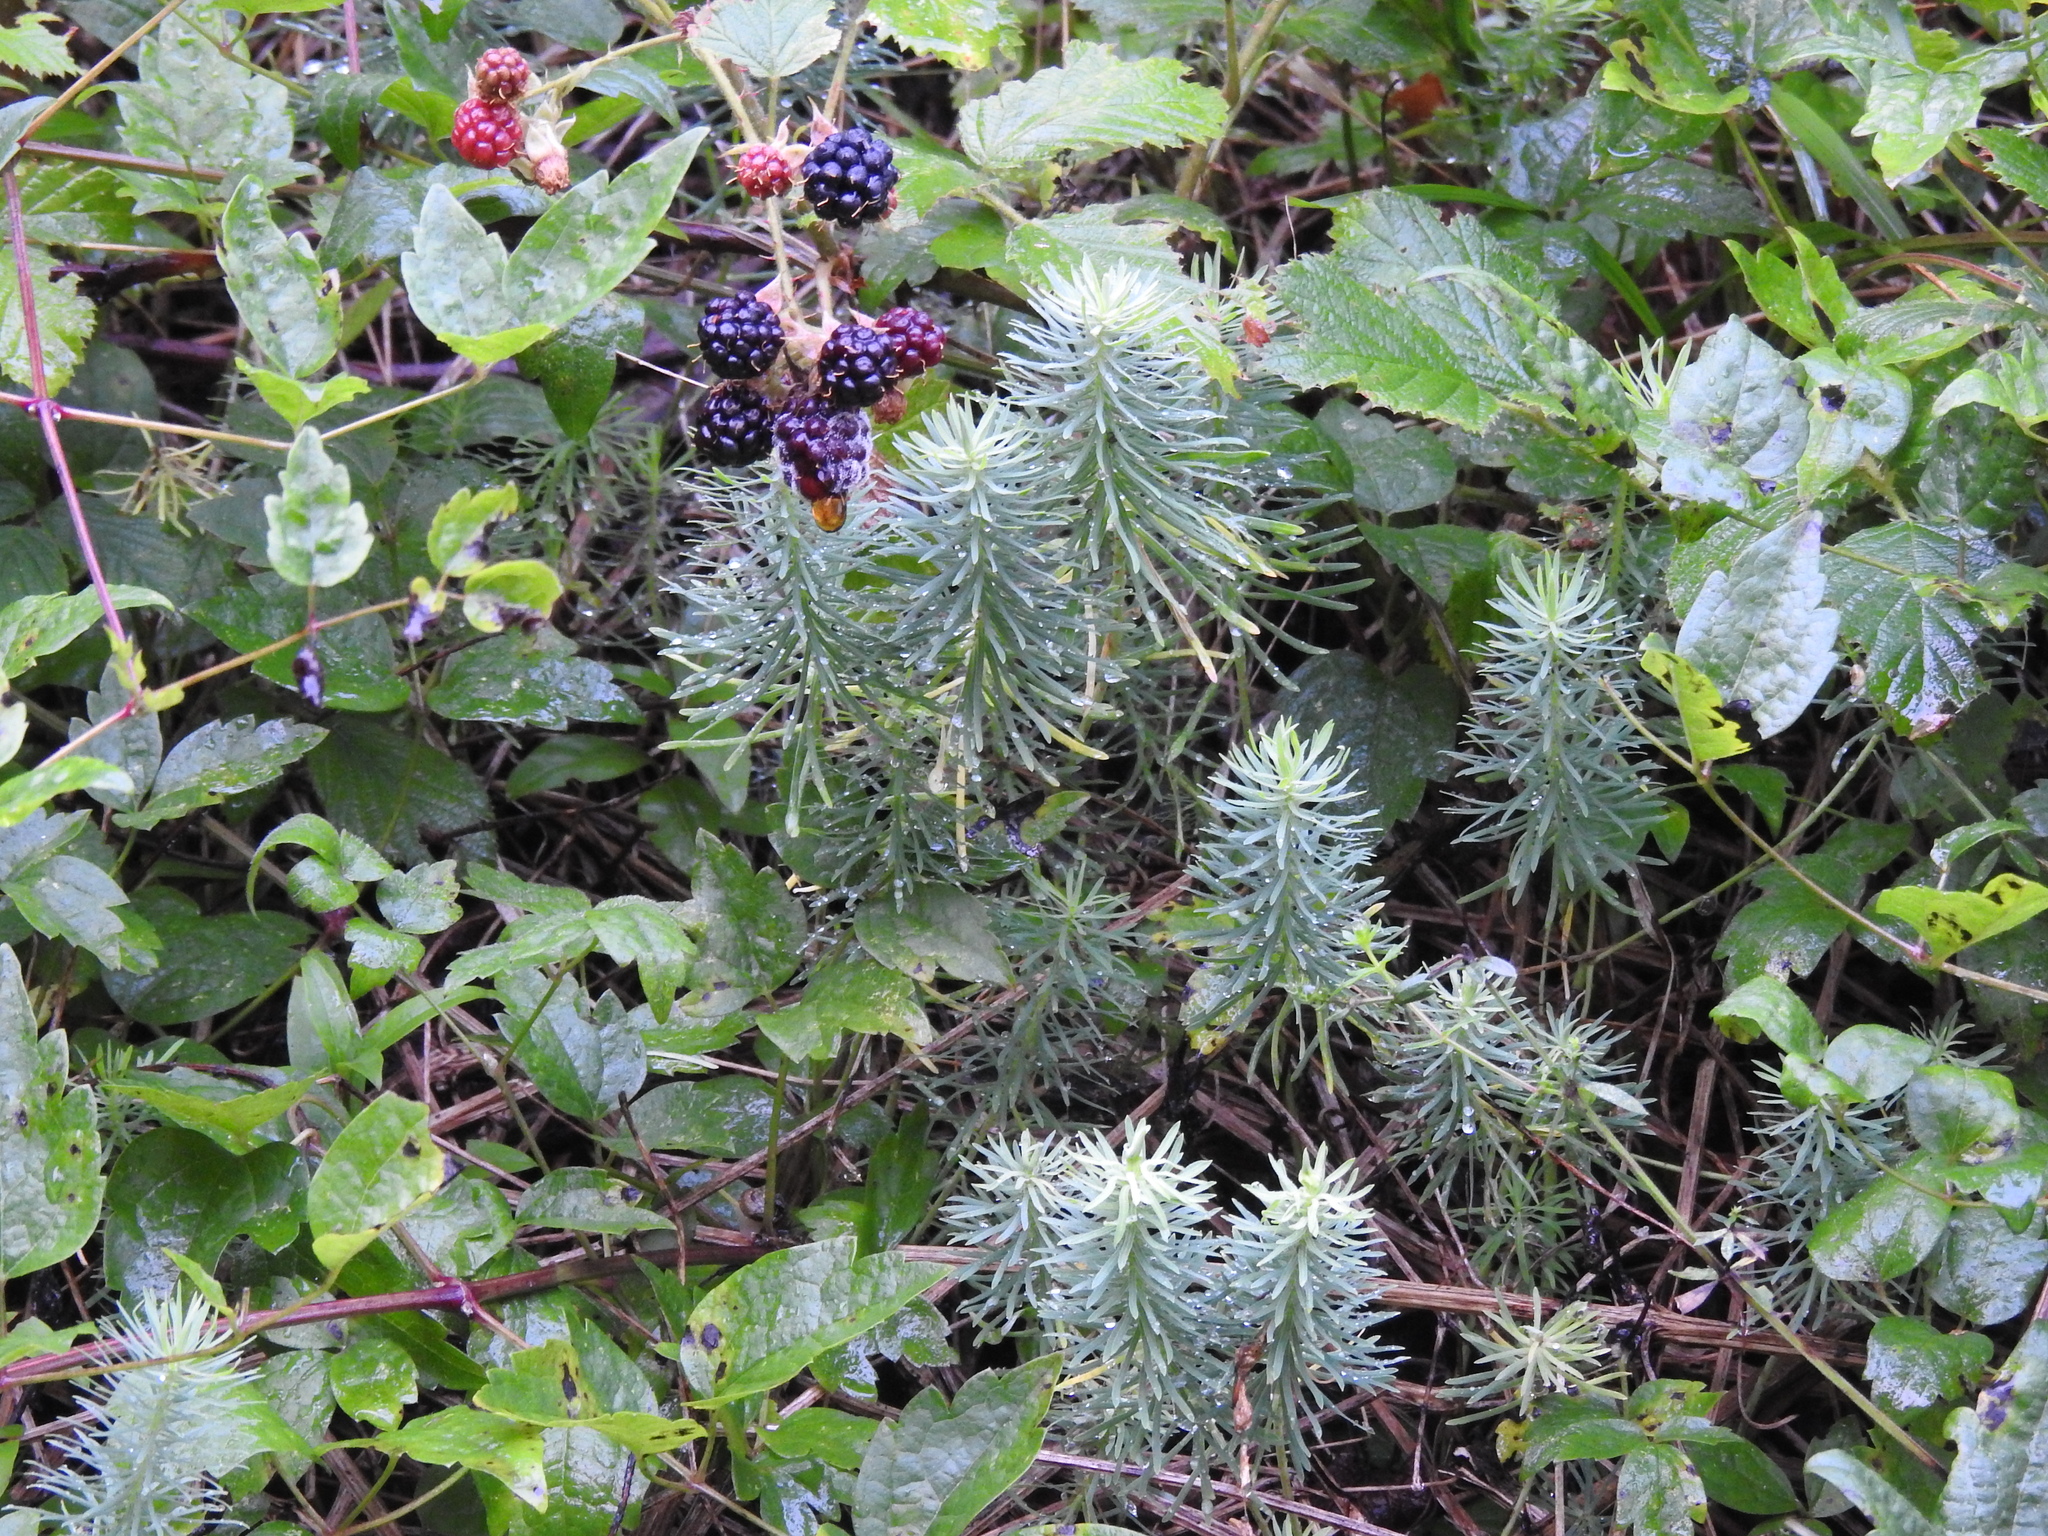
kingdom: Plantae
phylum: Tracheophyta
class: Magnoliopsida
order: Malpighiales
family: Euphorbiaceae
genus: Euphorbia
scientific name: Euphorbia cyparissias
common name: Cypress spurge
